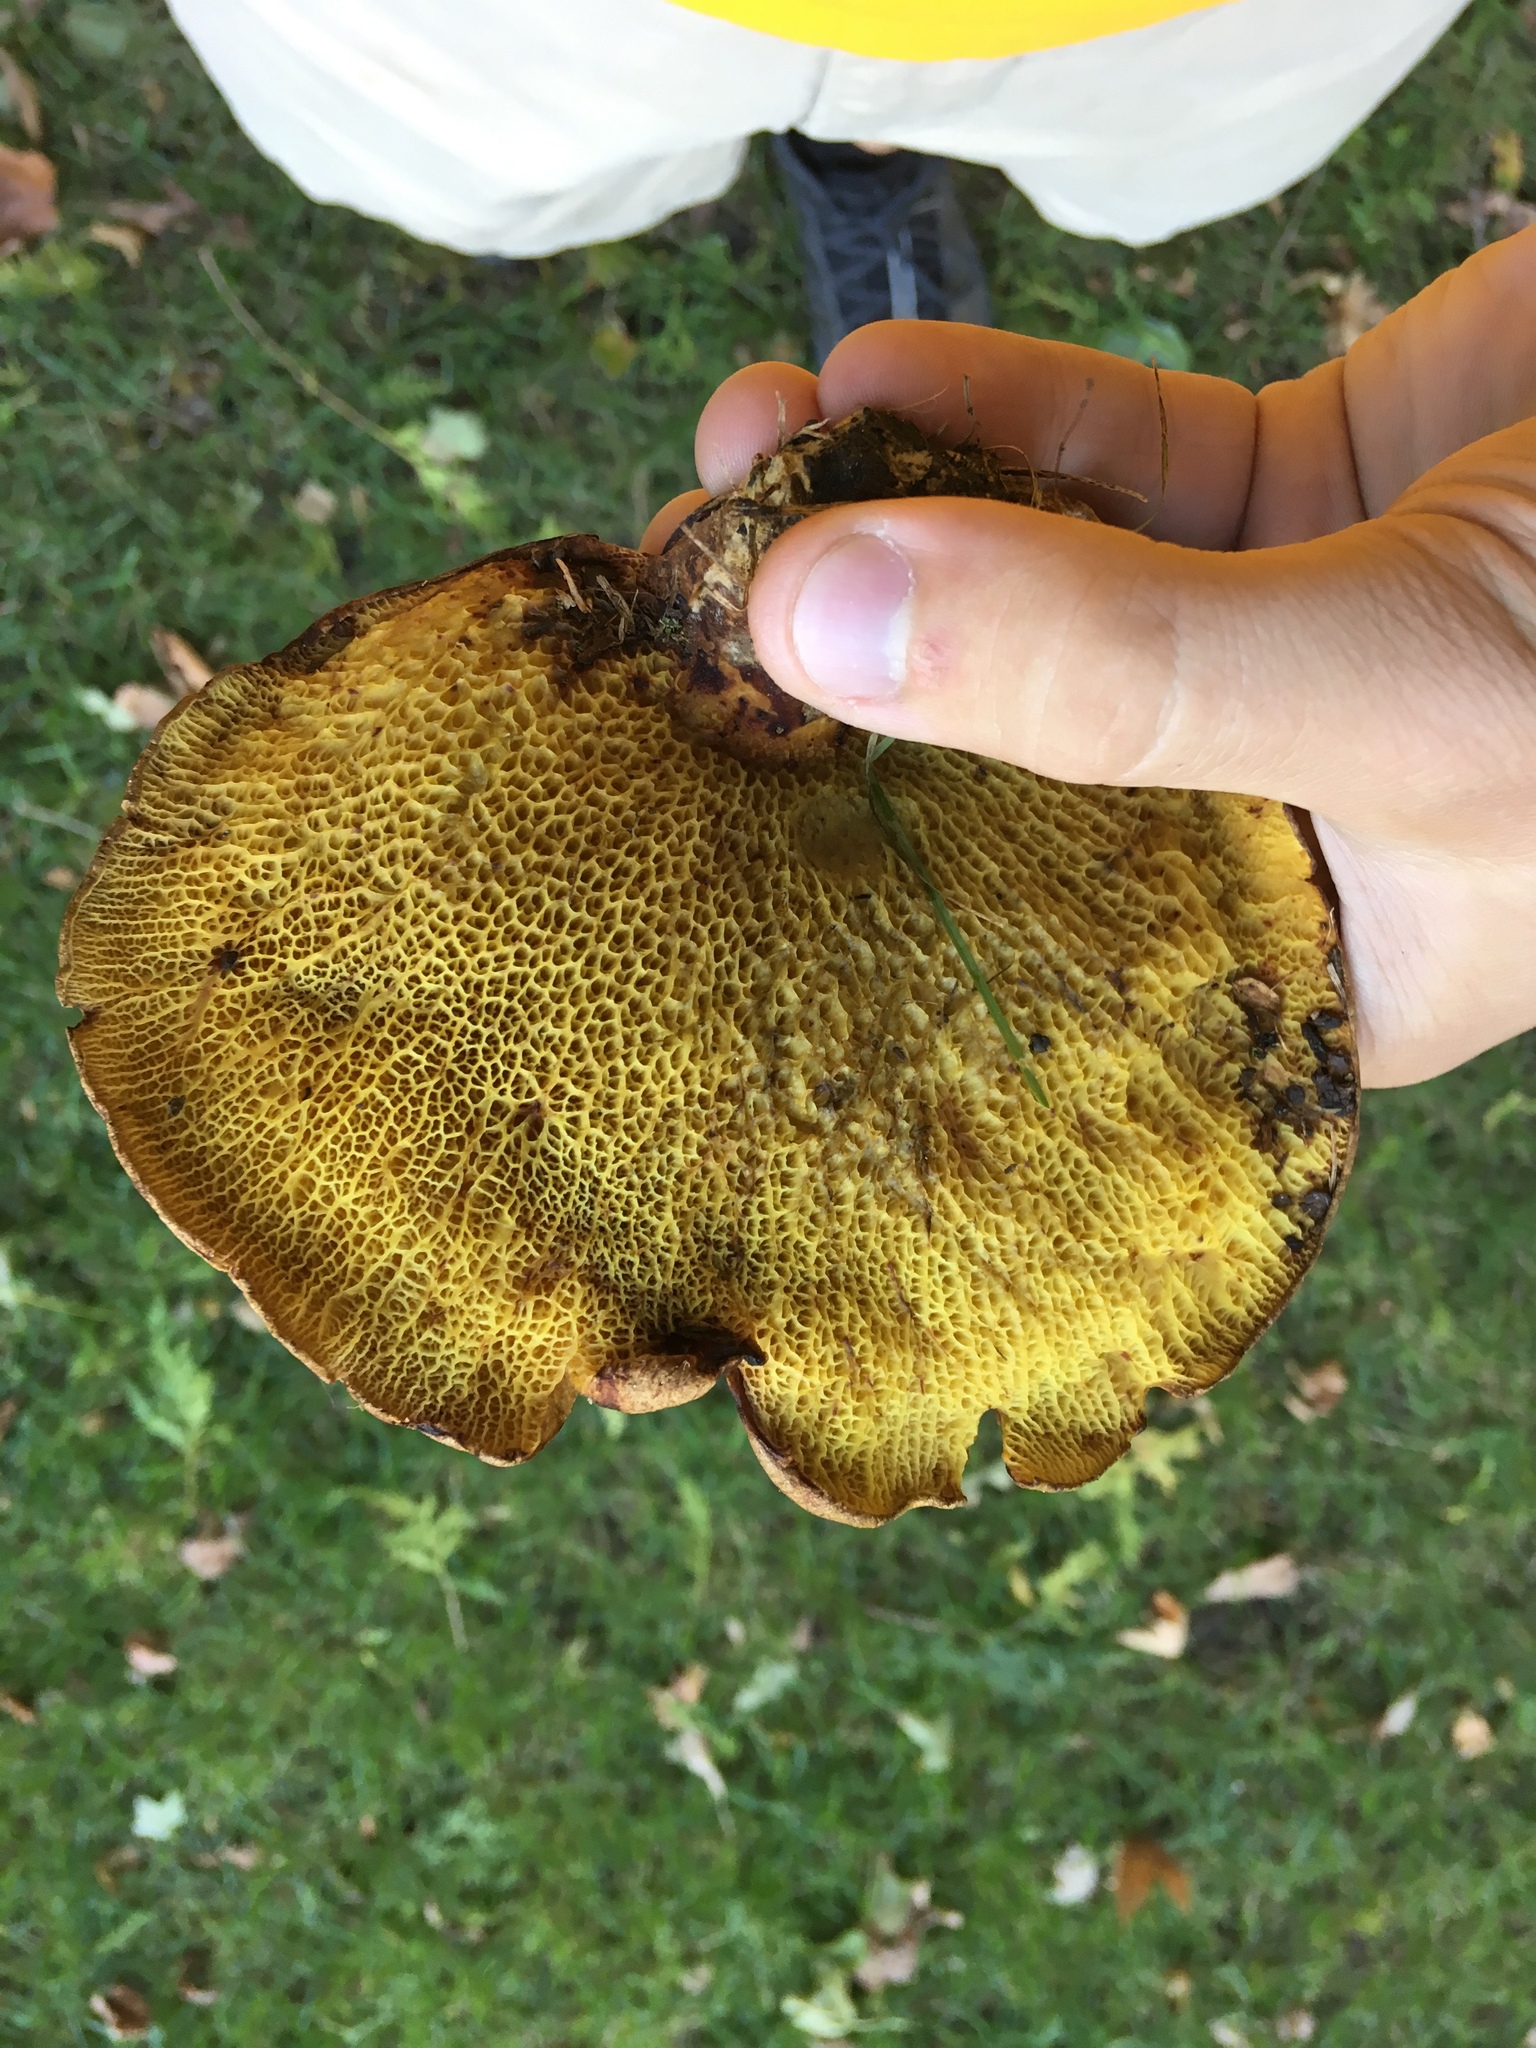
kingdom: Fungi
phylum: Basidiomycota
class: Agaricomycetes
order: Boletales
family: Boletinellaceae
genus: Boletinellus
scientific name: Boletinellus merulioides
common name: Ash tree bolete
